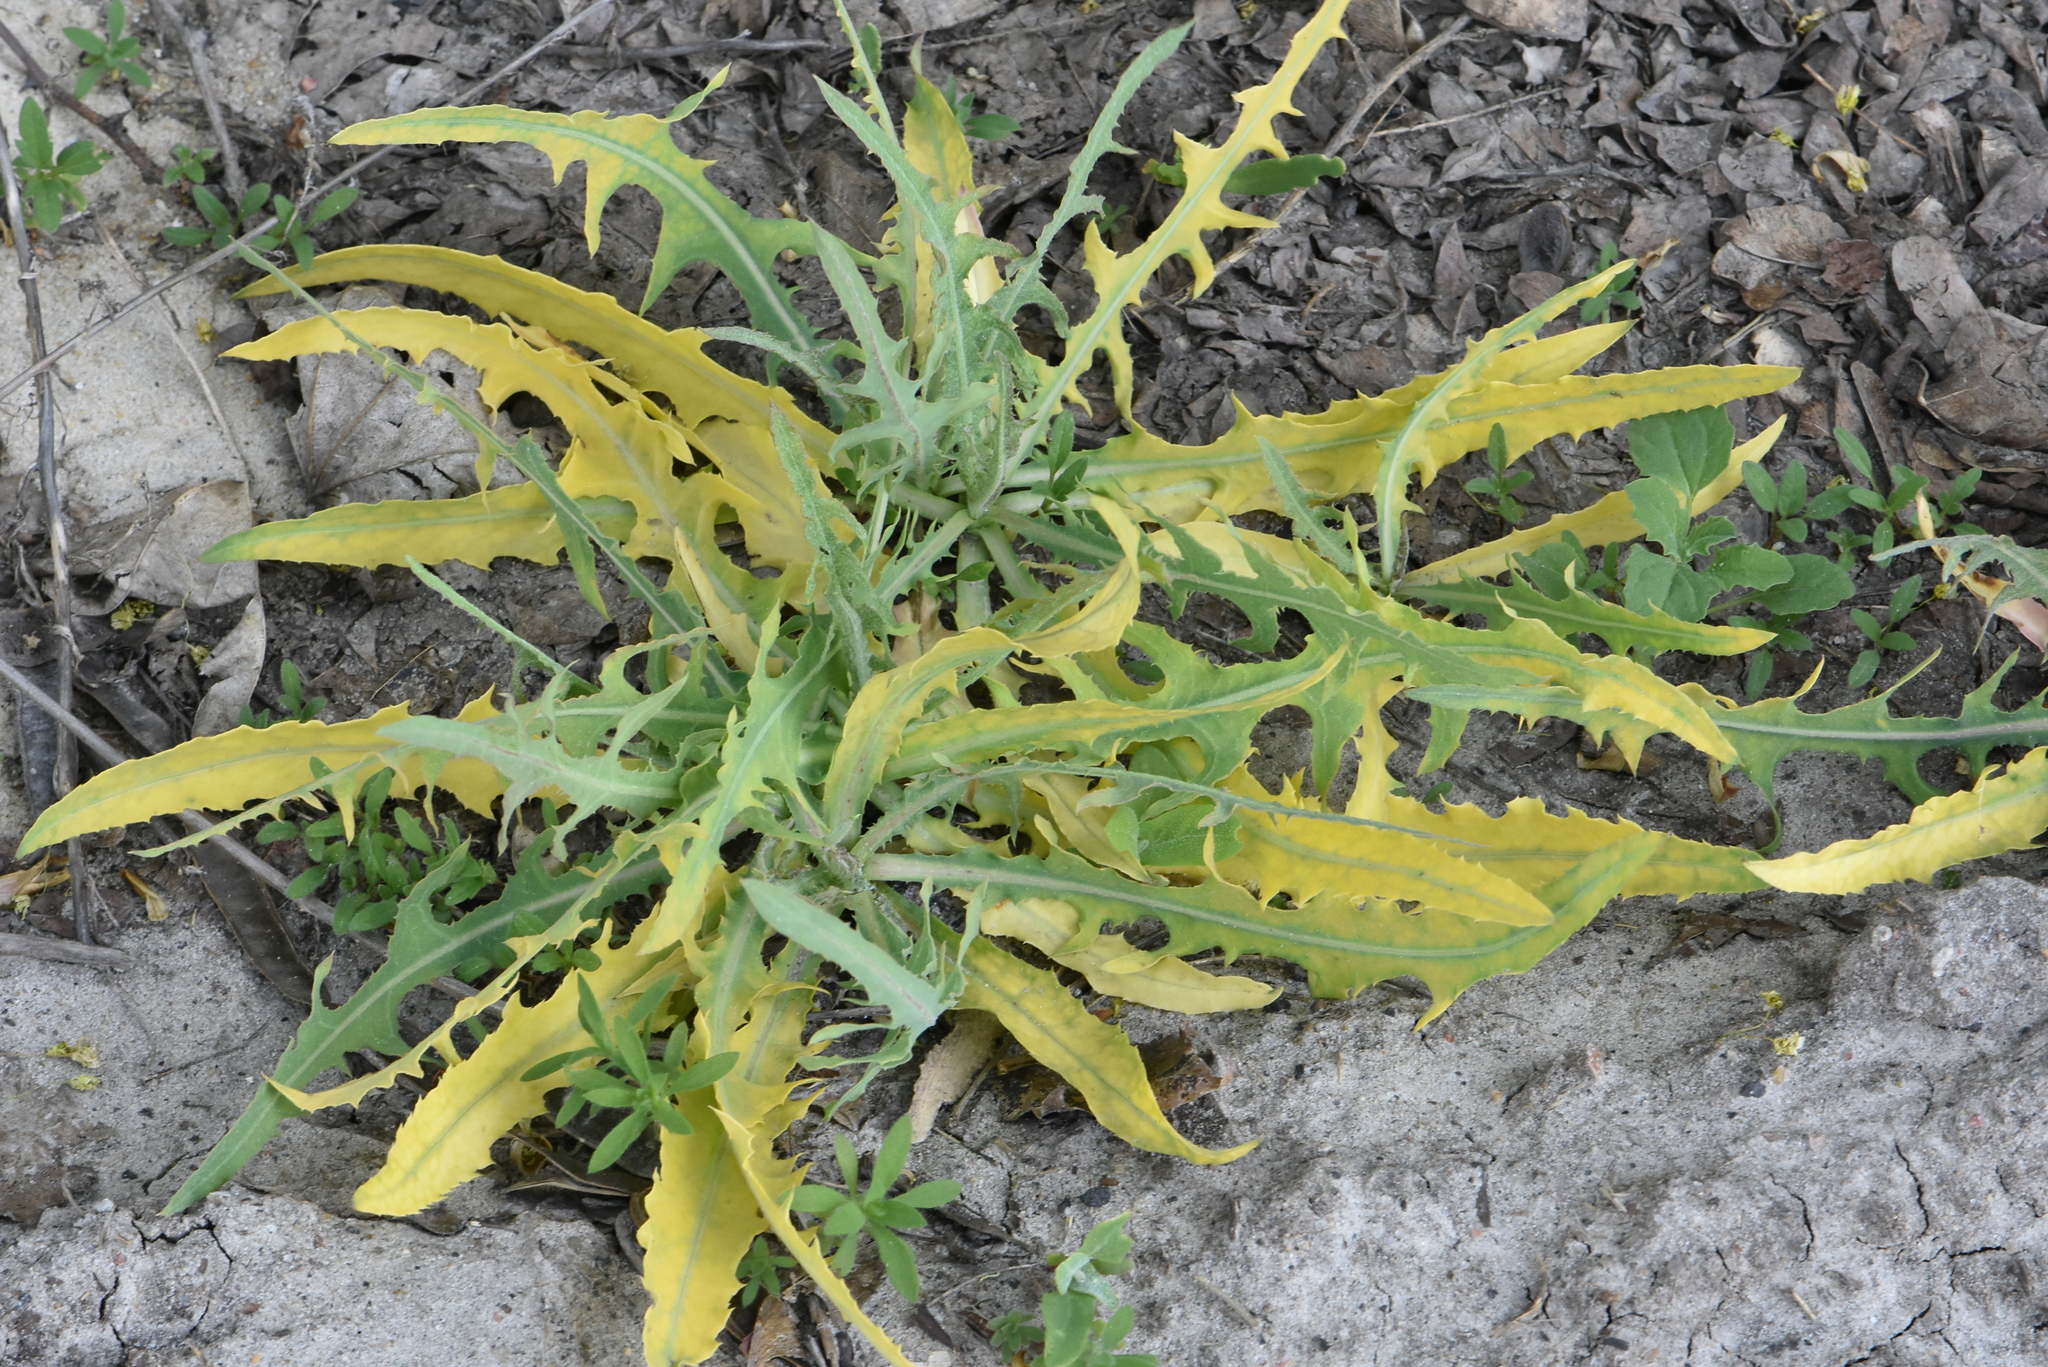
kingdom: Plantae
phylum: Tracheophyta
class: Magnoliopsida
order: Asterales
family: Asteraceae
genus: Lactuca
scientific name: Lactuca tatarica
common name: Blue lettuce
